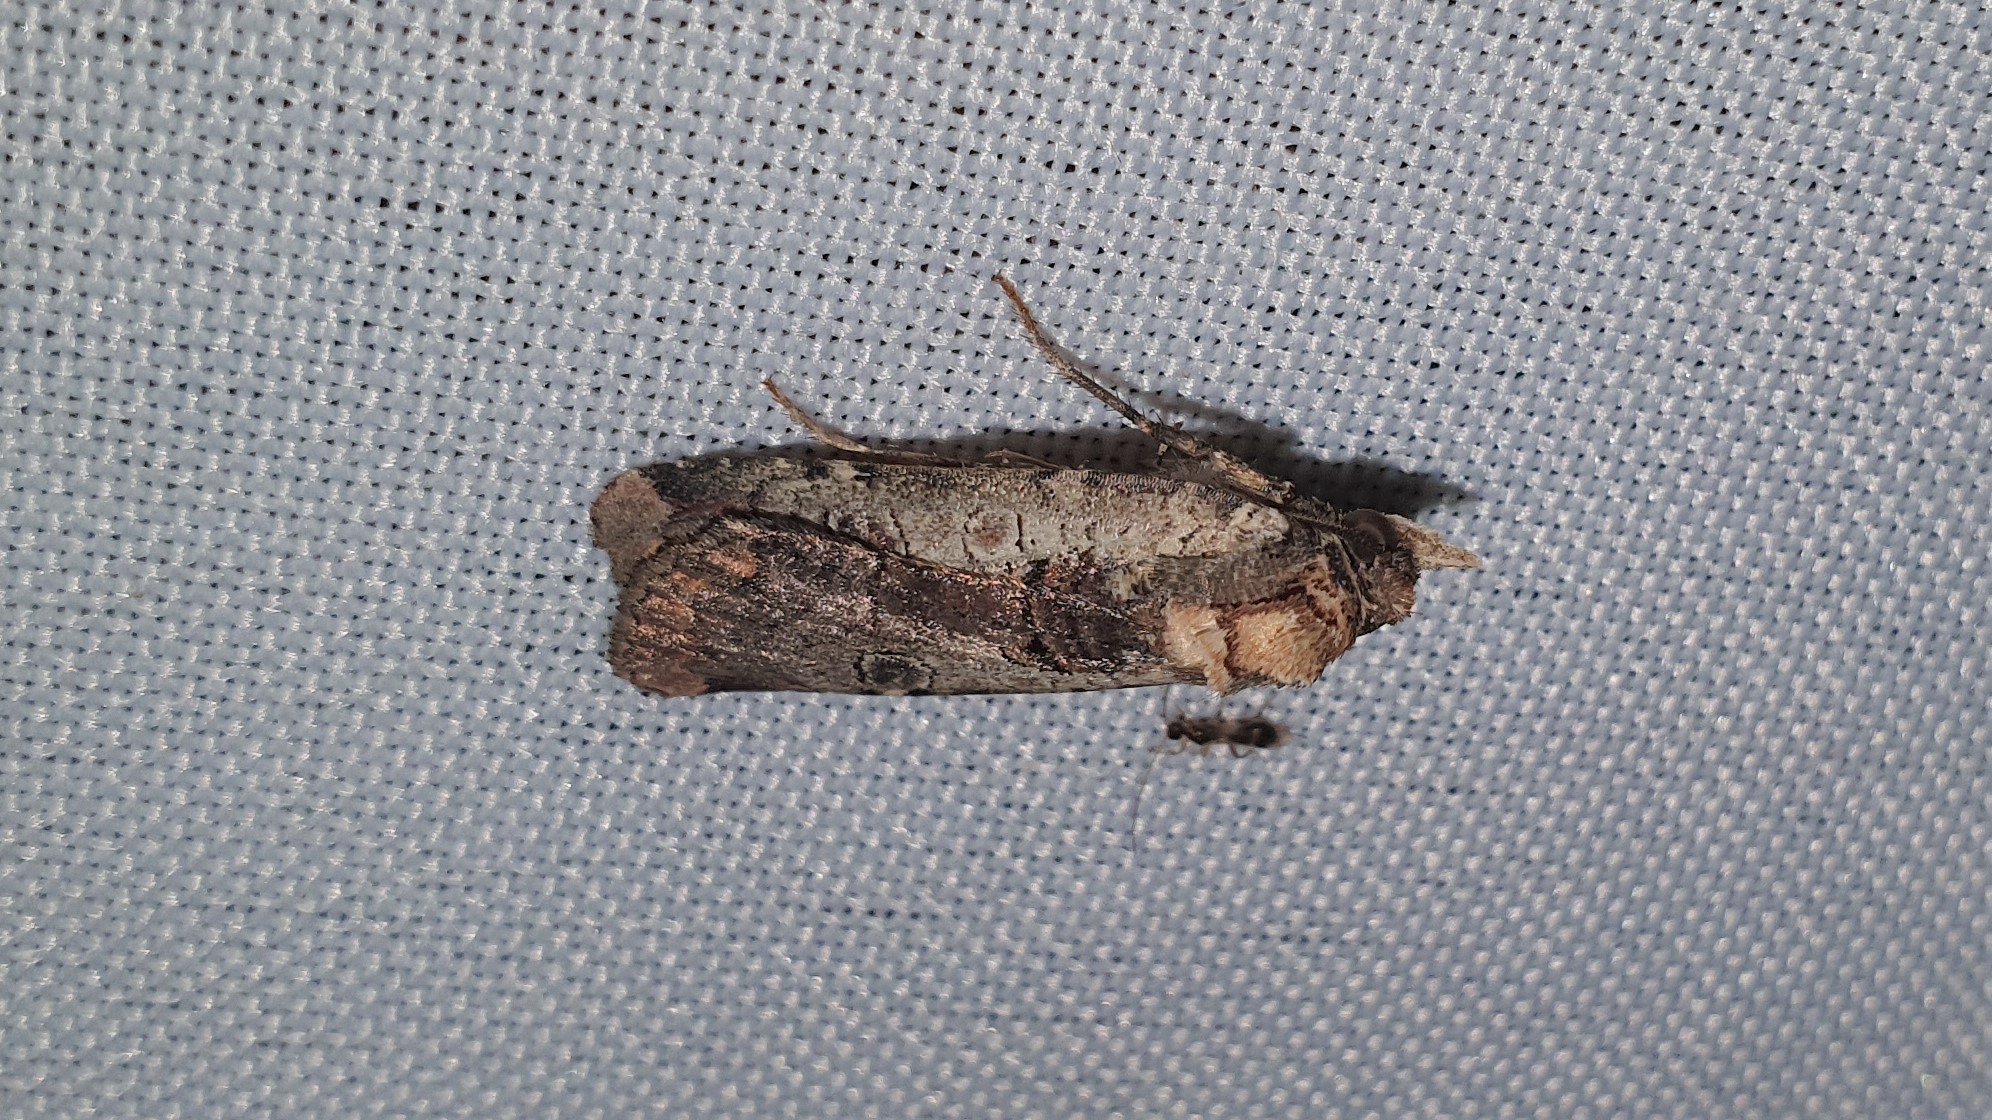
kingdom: Animalia
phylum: Arthropoda
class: Insecta
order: Lepidoptera
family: Noctuidae
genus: Epilecta
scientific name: Epilecta linogrisea
